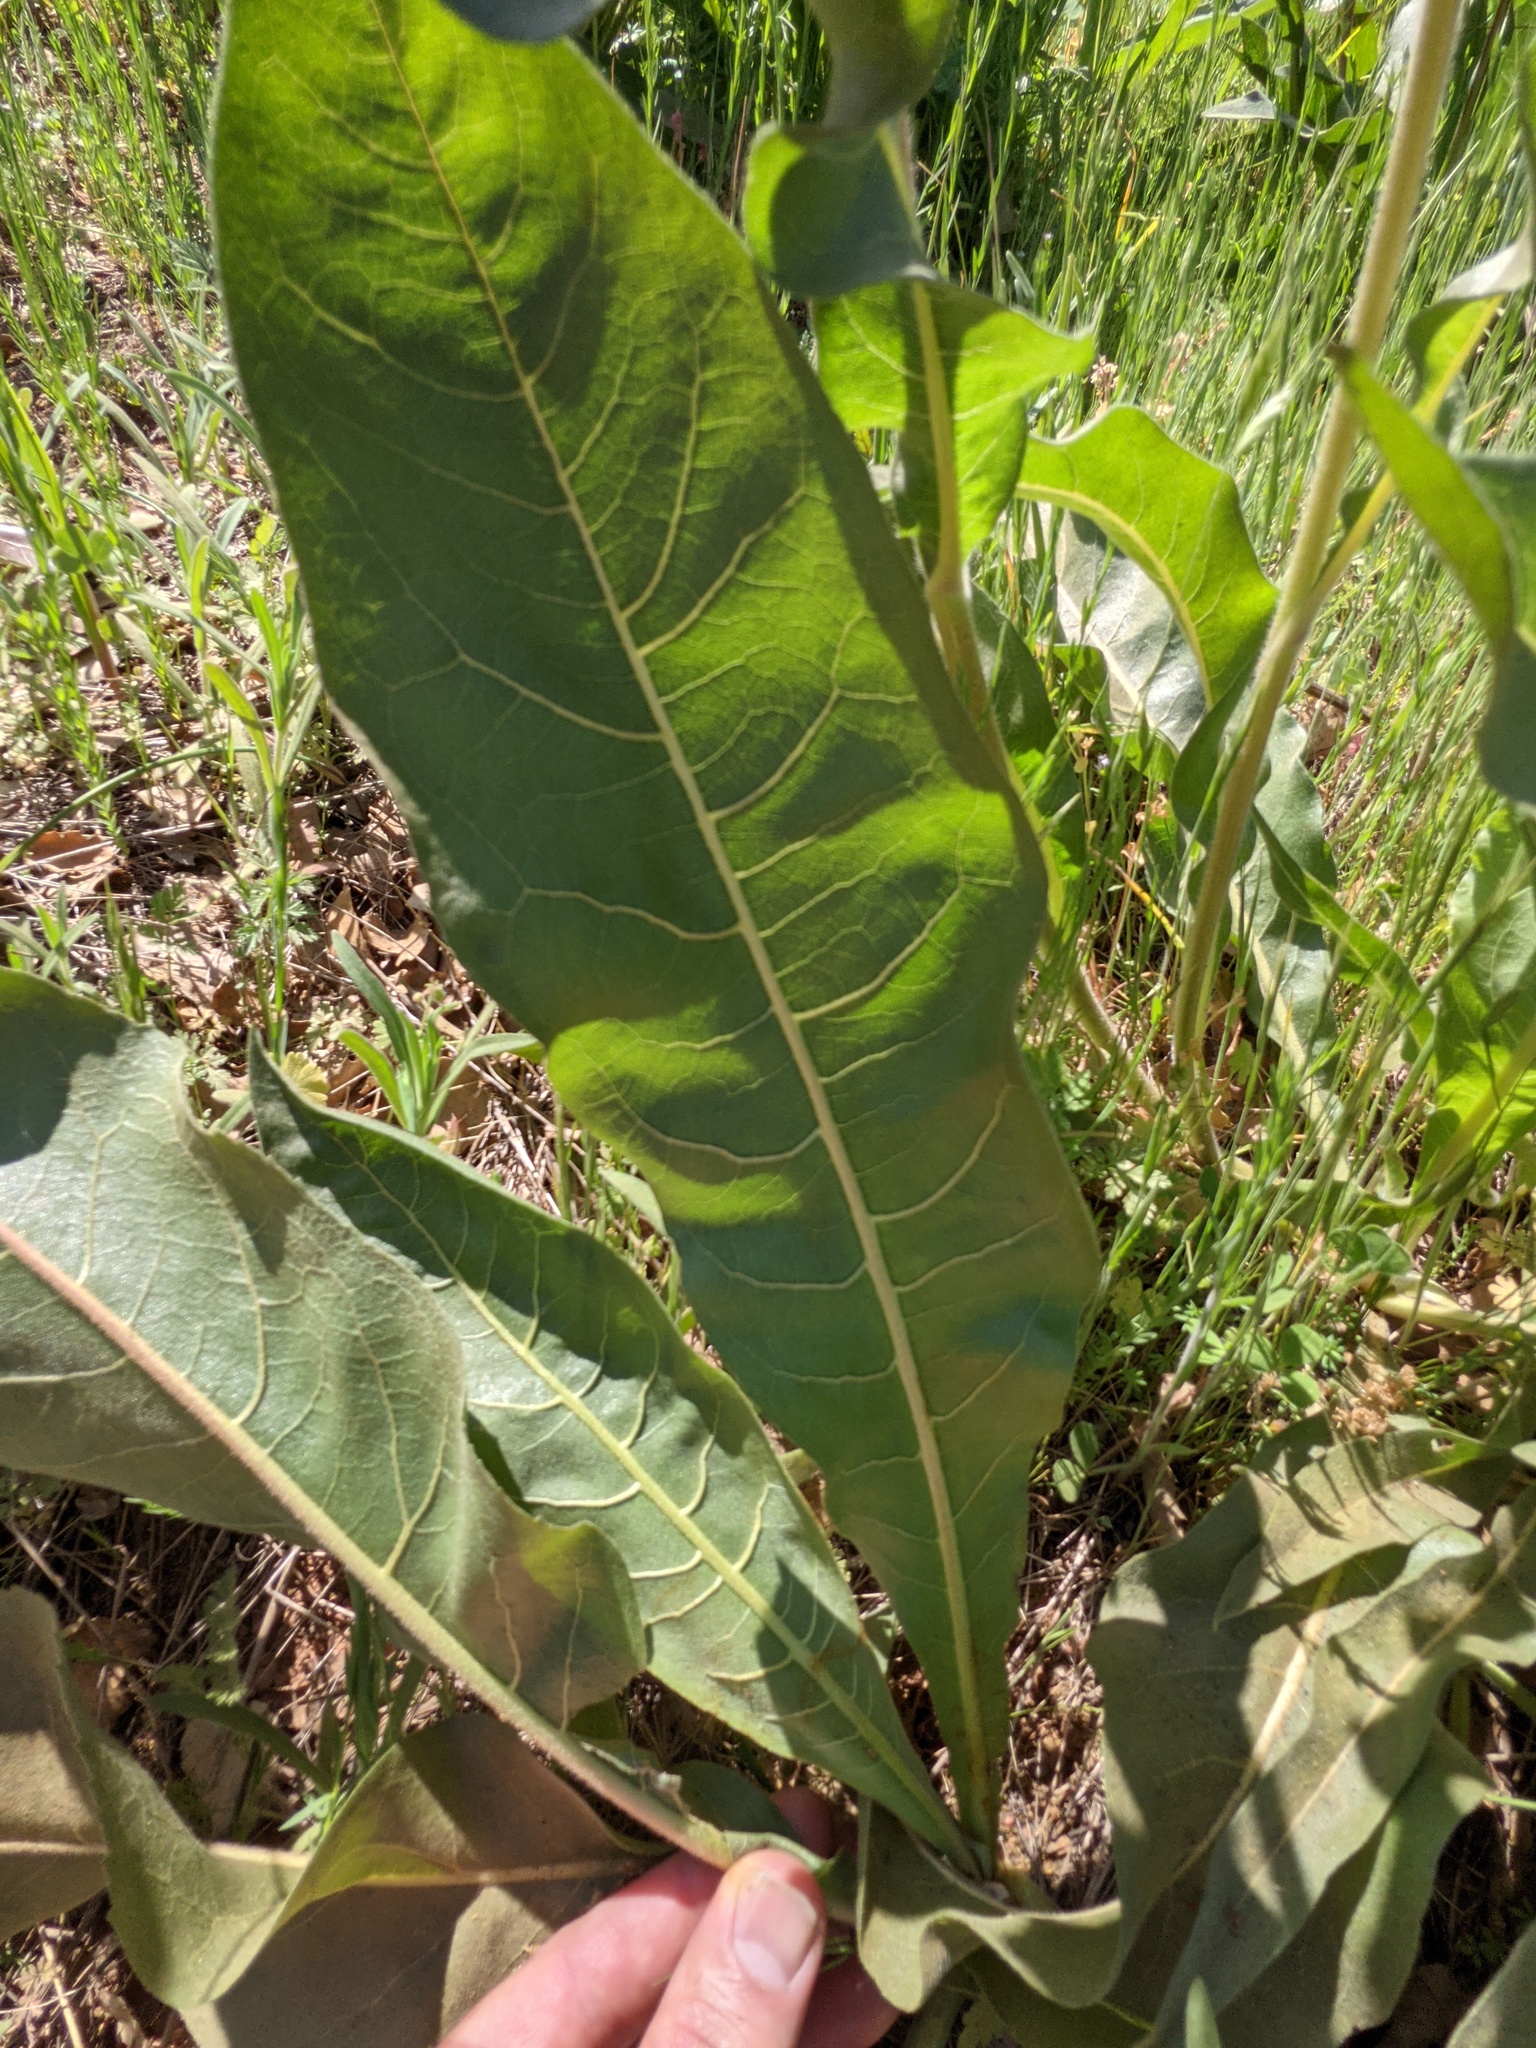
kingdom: Plantae
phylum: Tracheophyta
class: Magnoliopsida
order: Asterales
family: Asteraceae
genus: Wyethia
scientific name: Wyethia angustifolia
